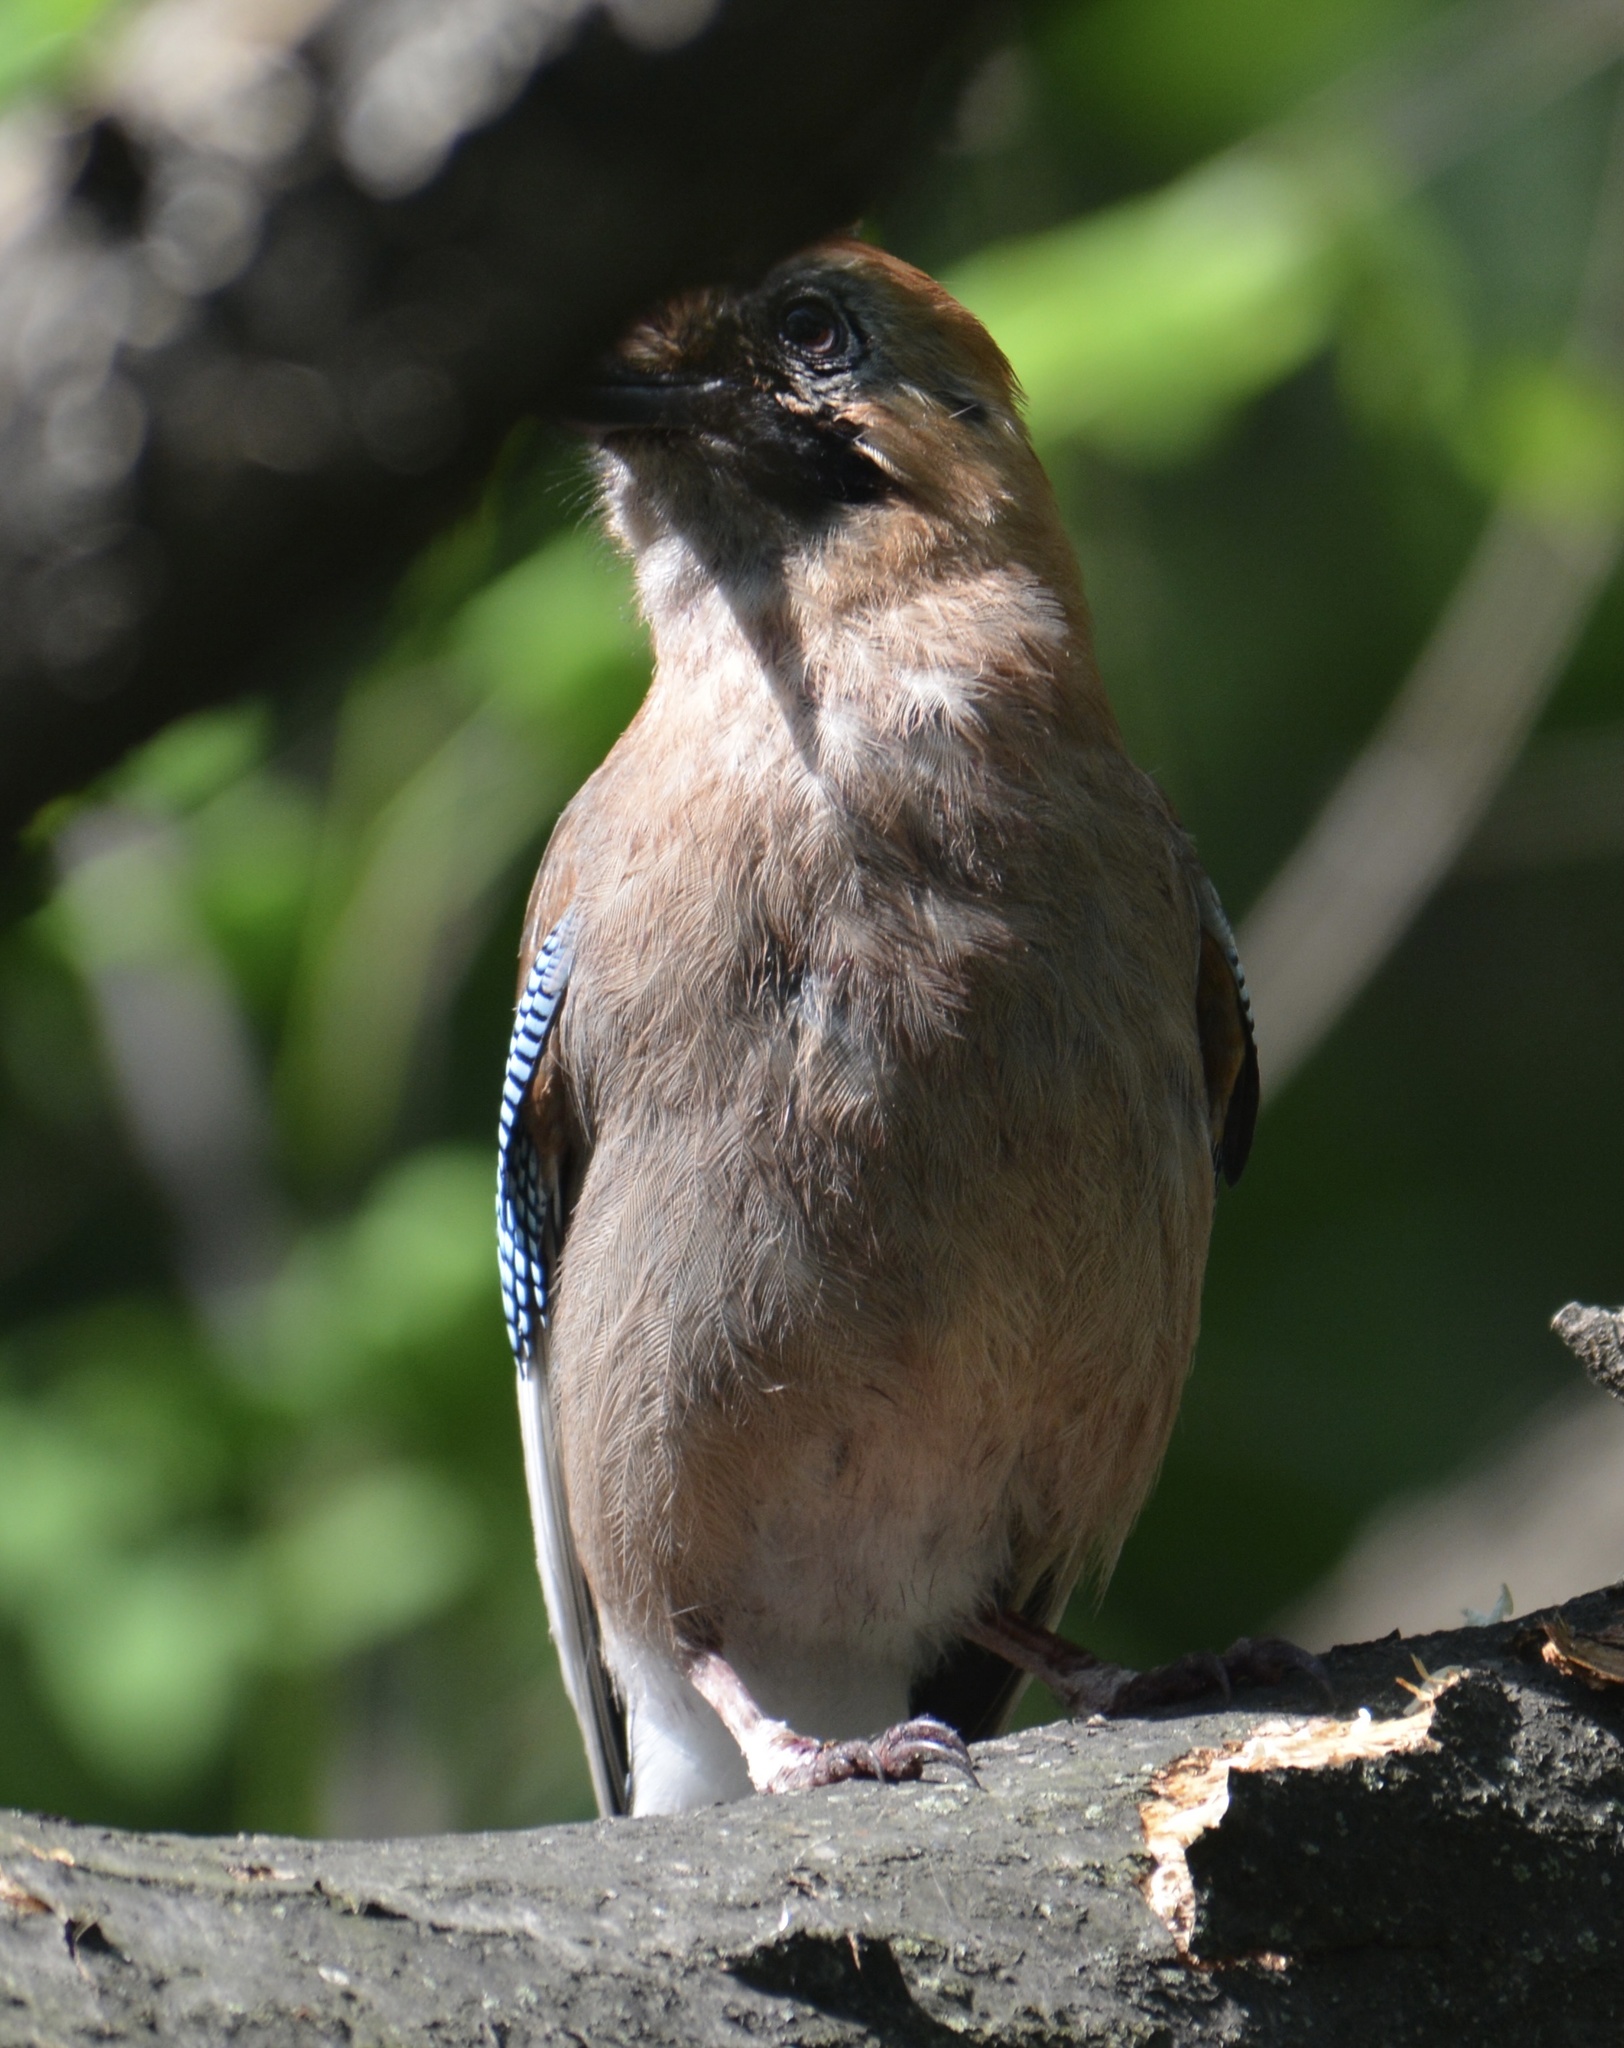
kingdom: Animalia
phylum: Chordata
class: Aves
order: Passeriformes
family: Corvidae
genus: Garrulus
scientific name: Garrulus glandarius
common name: Eurasian jay
